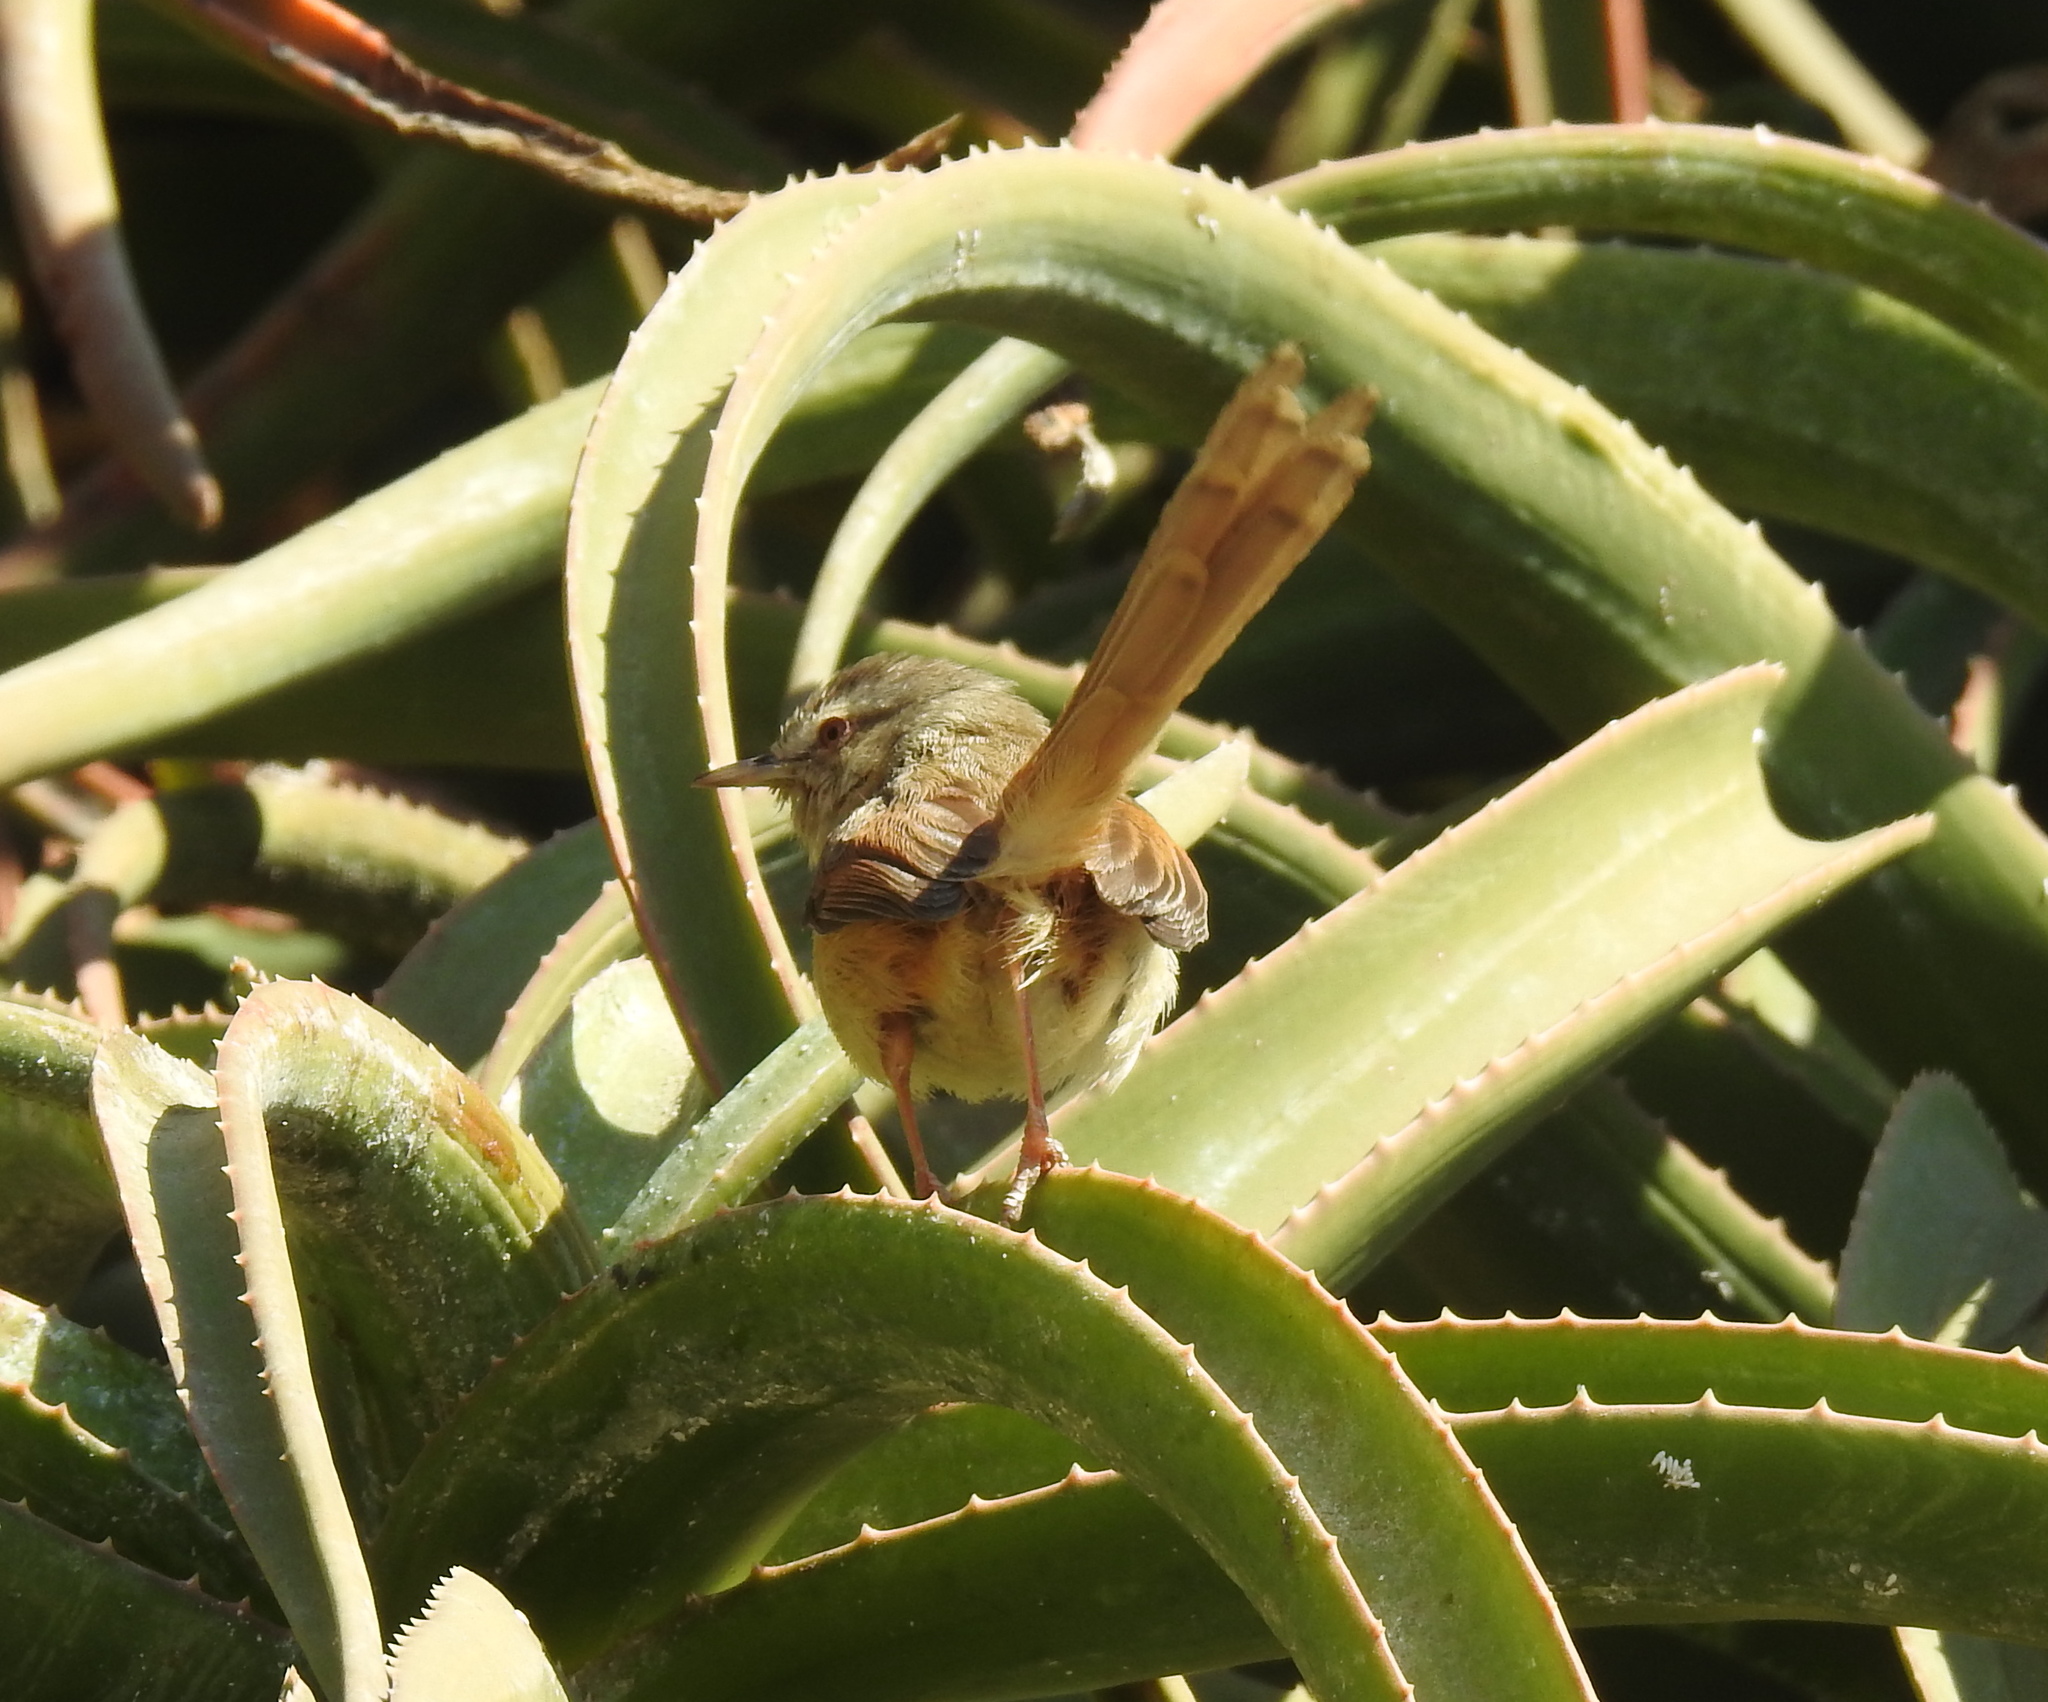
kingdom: Animalia
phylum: Chordata
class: Aves
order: Passeriformes
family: Cisticolidae
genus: Prinia
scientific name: Prinia subflava
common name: Tawny-flanked prinia
